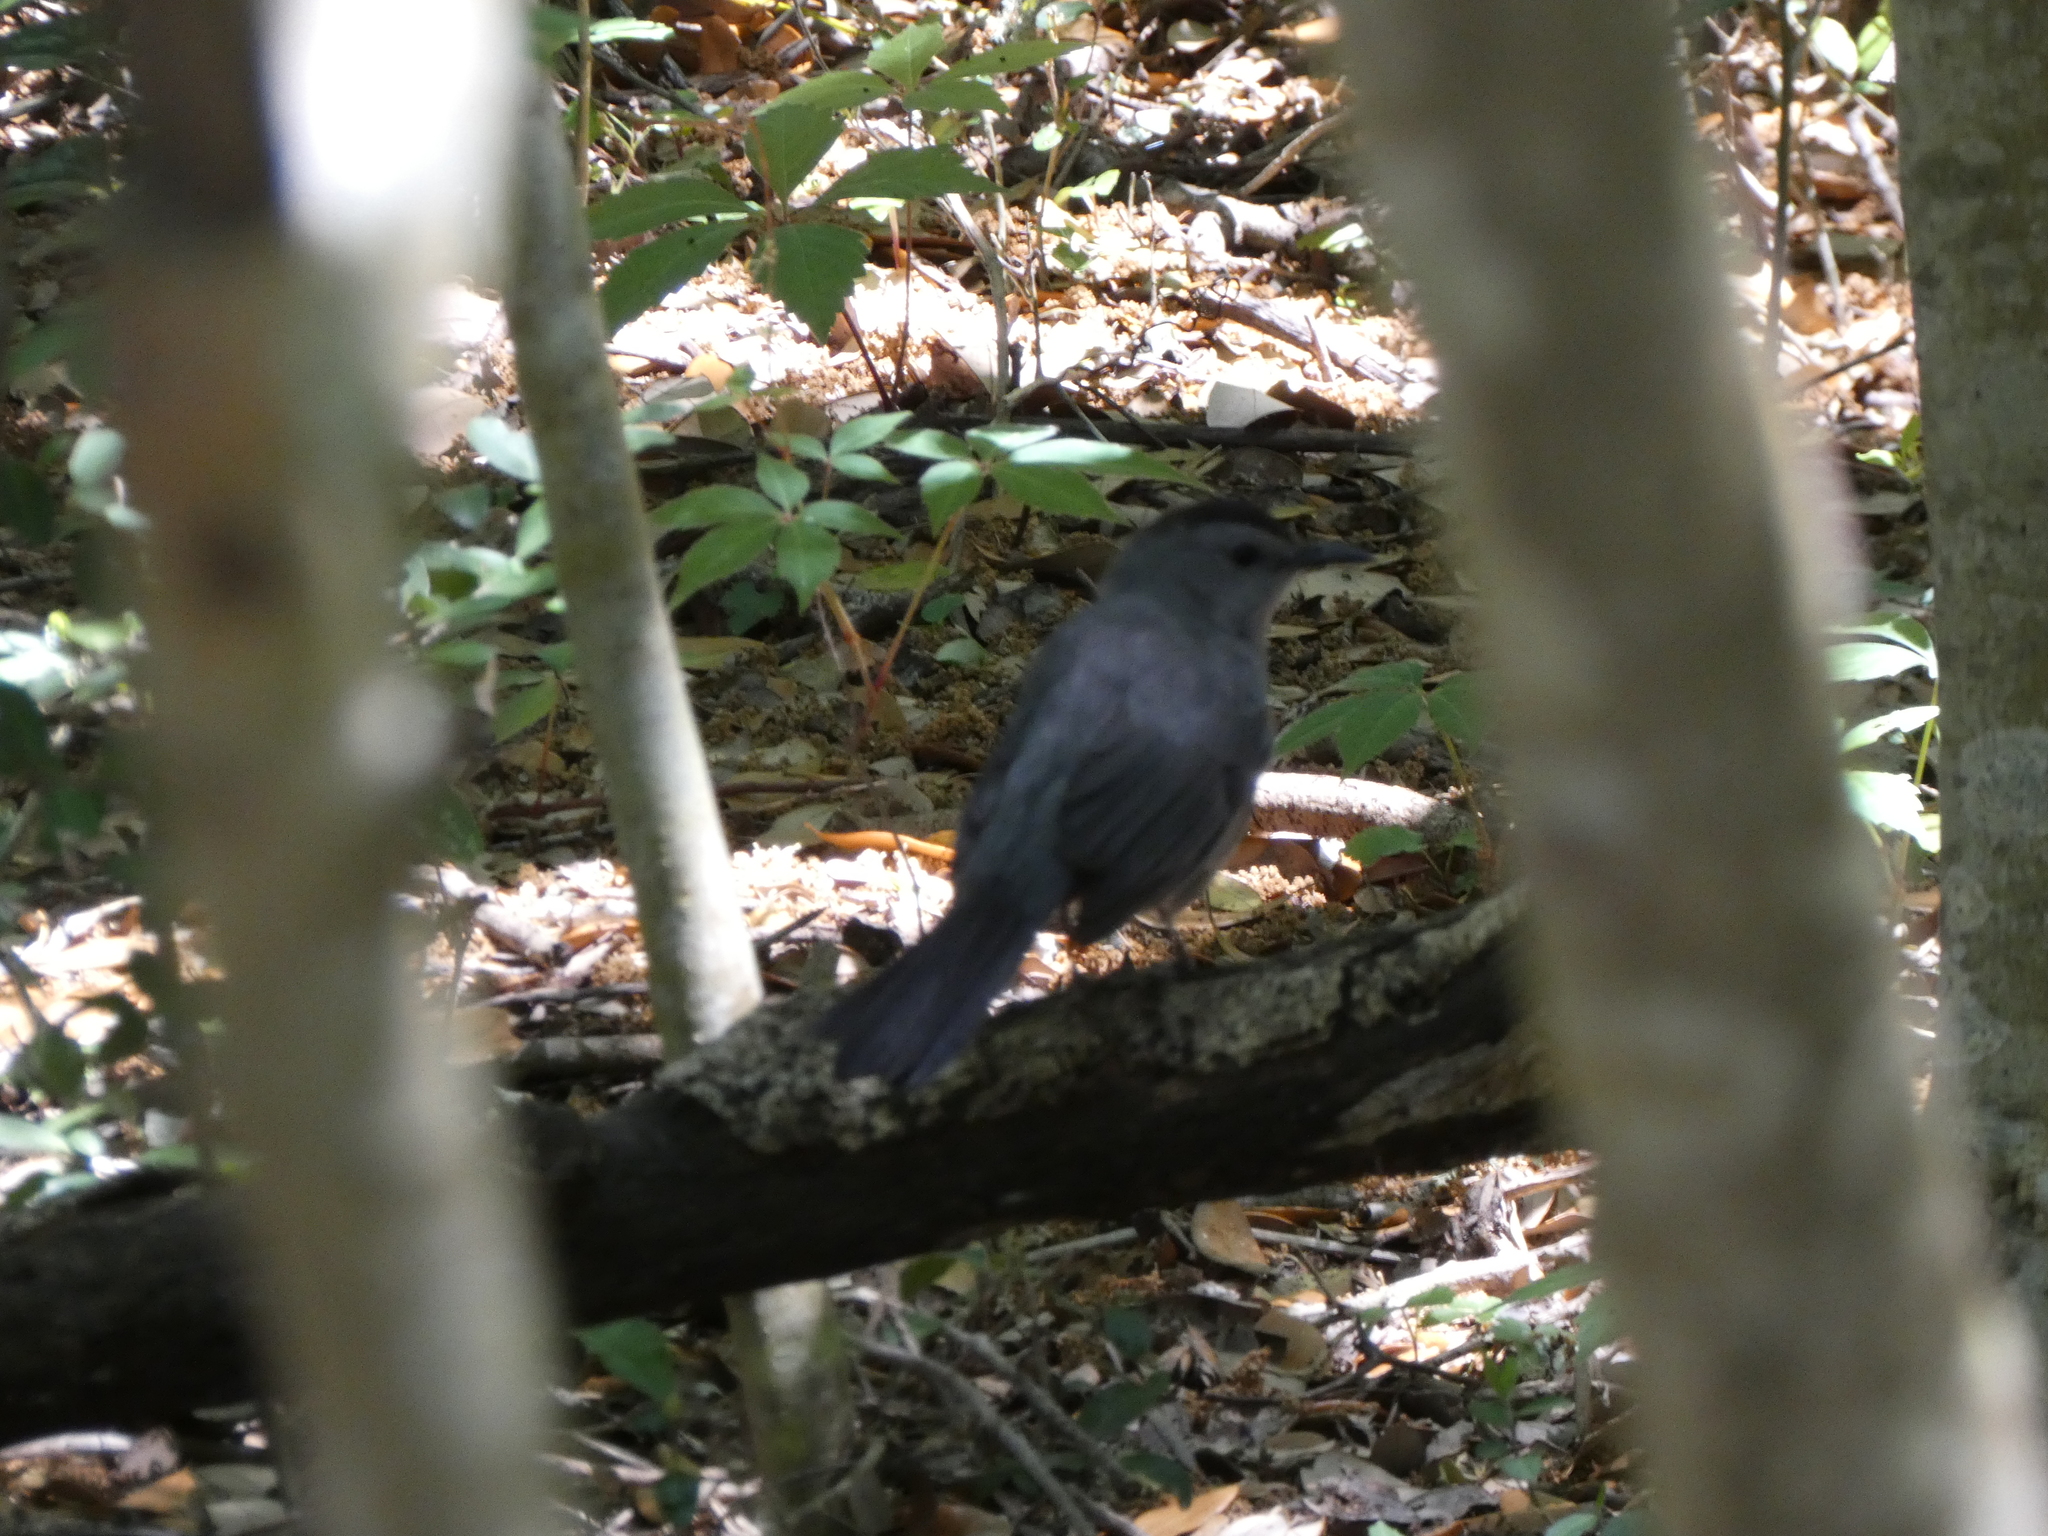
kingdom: Animalia
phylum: Chordata
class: Aves
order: Passeriformes
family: Mimidae
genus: Dumetella
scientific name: Dumetella carolinensis
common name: Gray catbird
